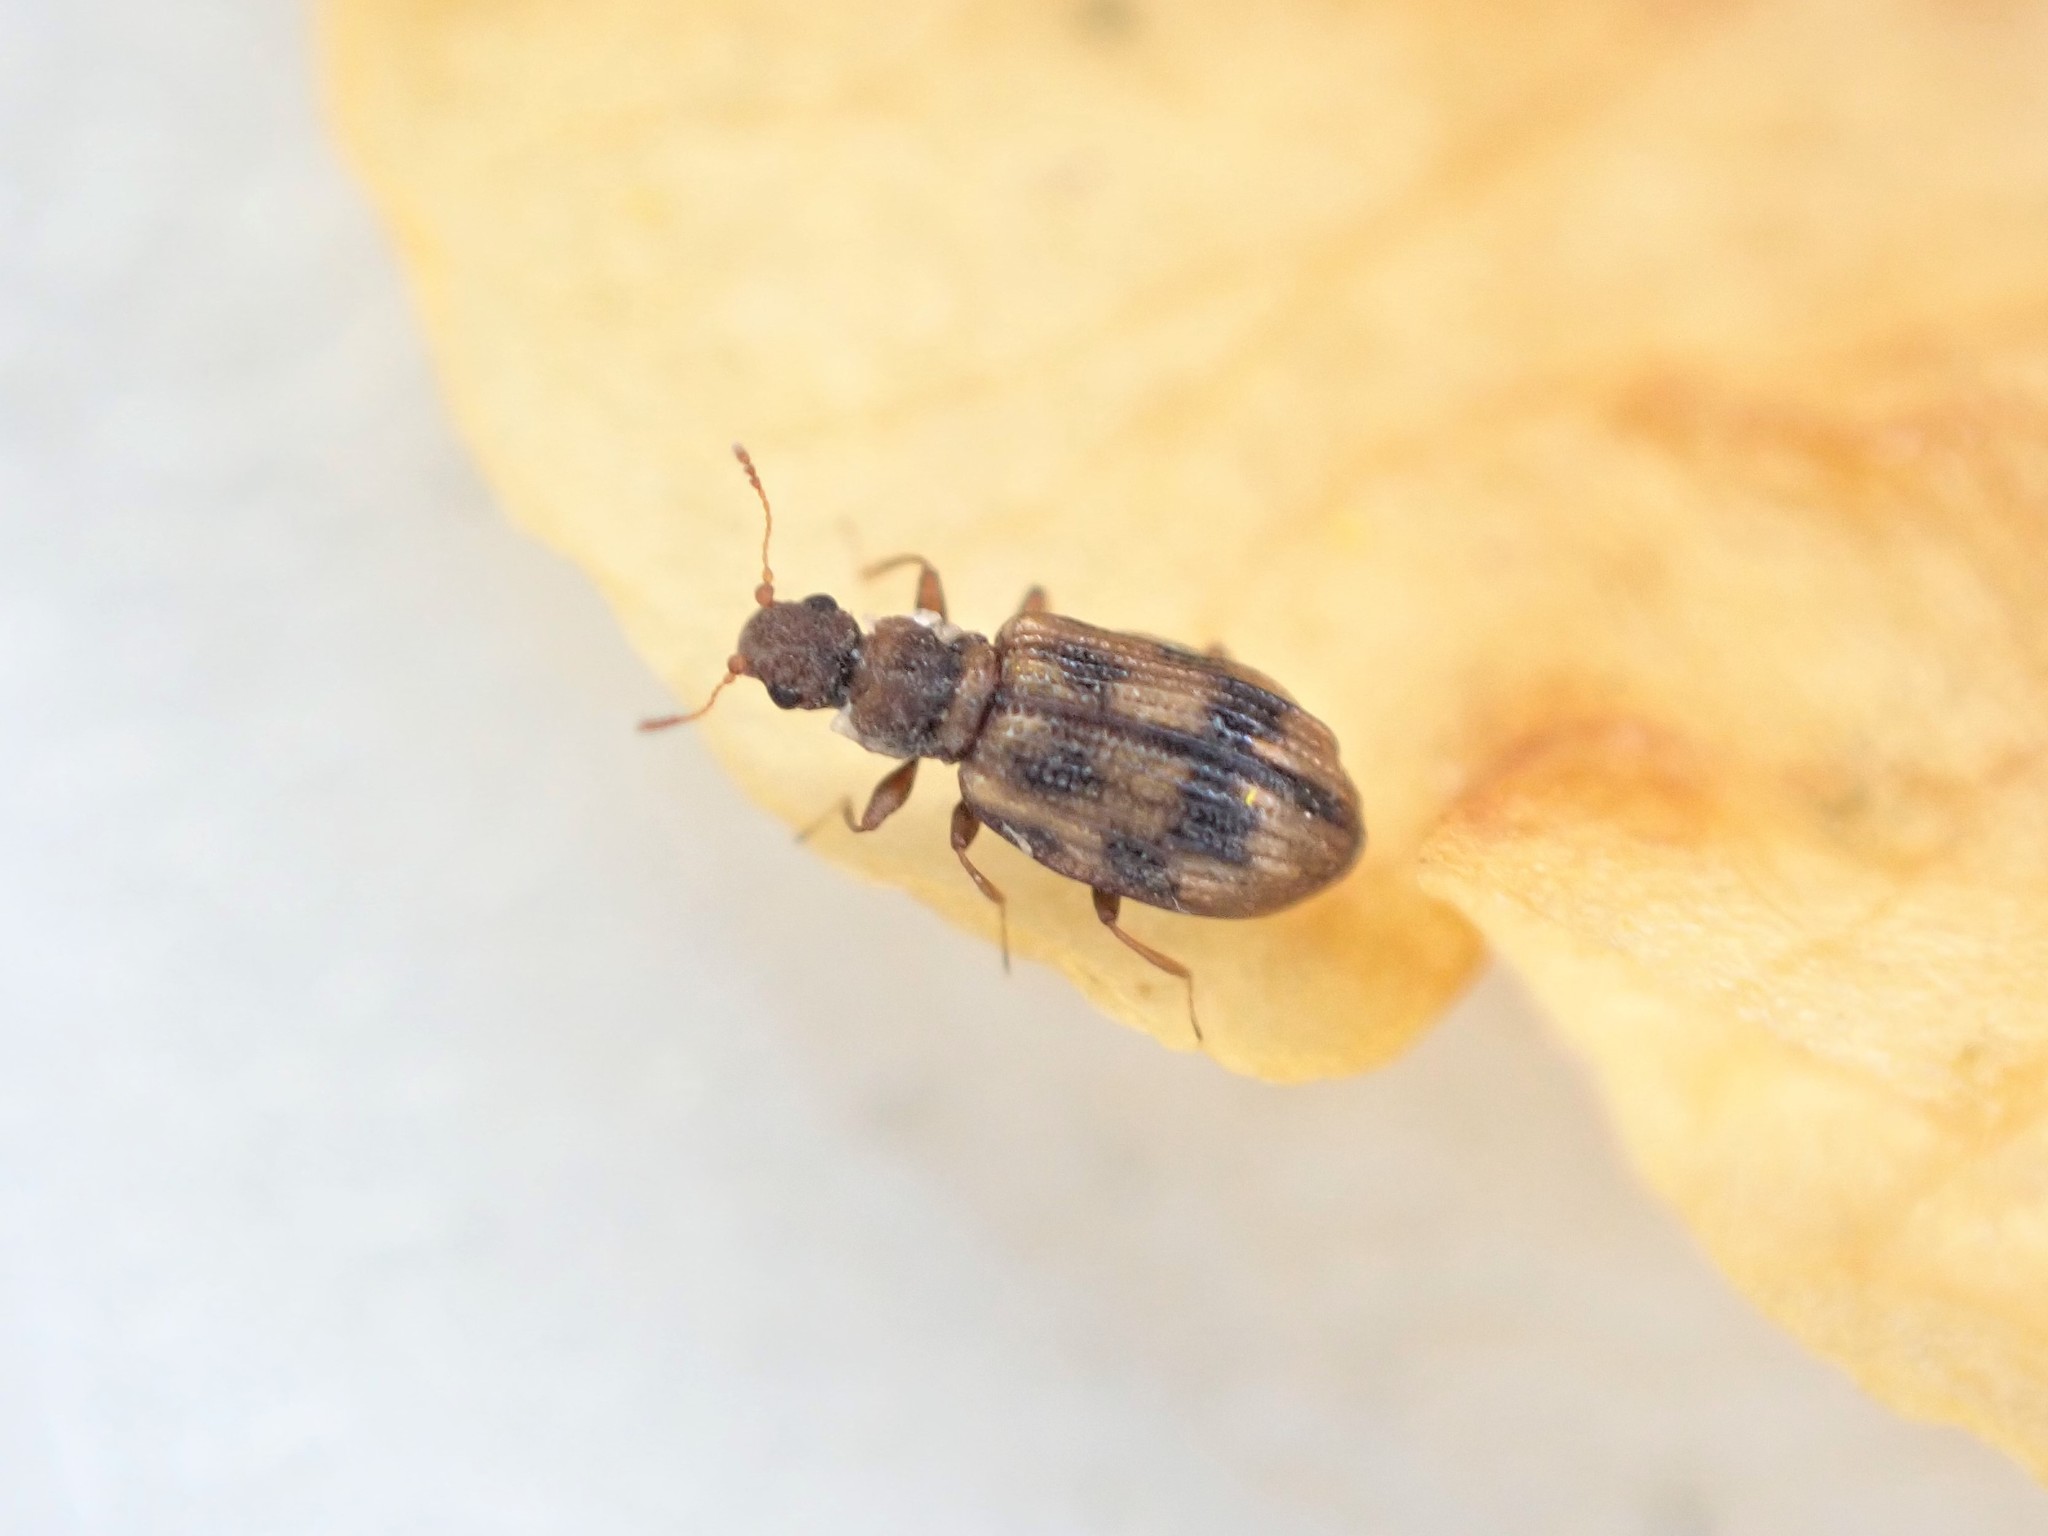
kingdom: Animalia
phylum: Arthropoda
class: Insecta
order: Coleoptera
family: Latridiidae
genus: Cartodere
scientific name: Cartodere bifasciata
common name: Plaster beetle
